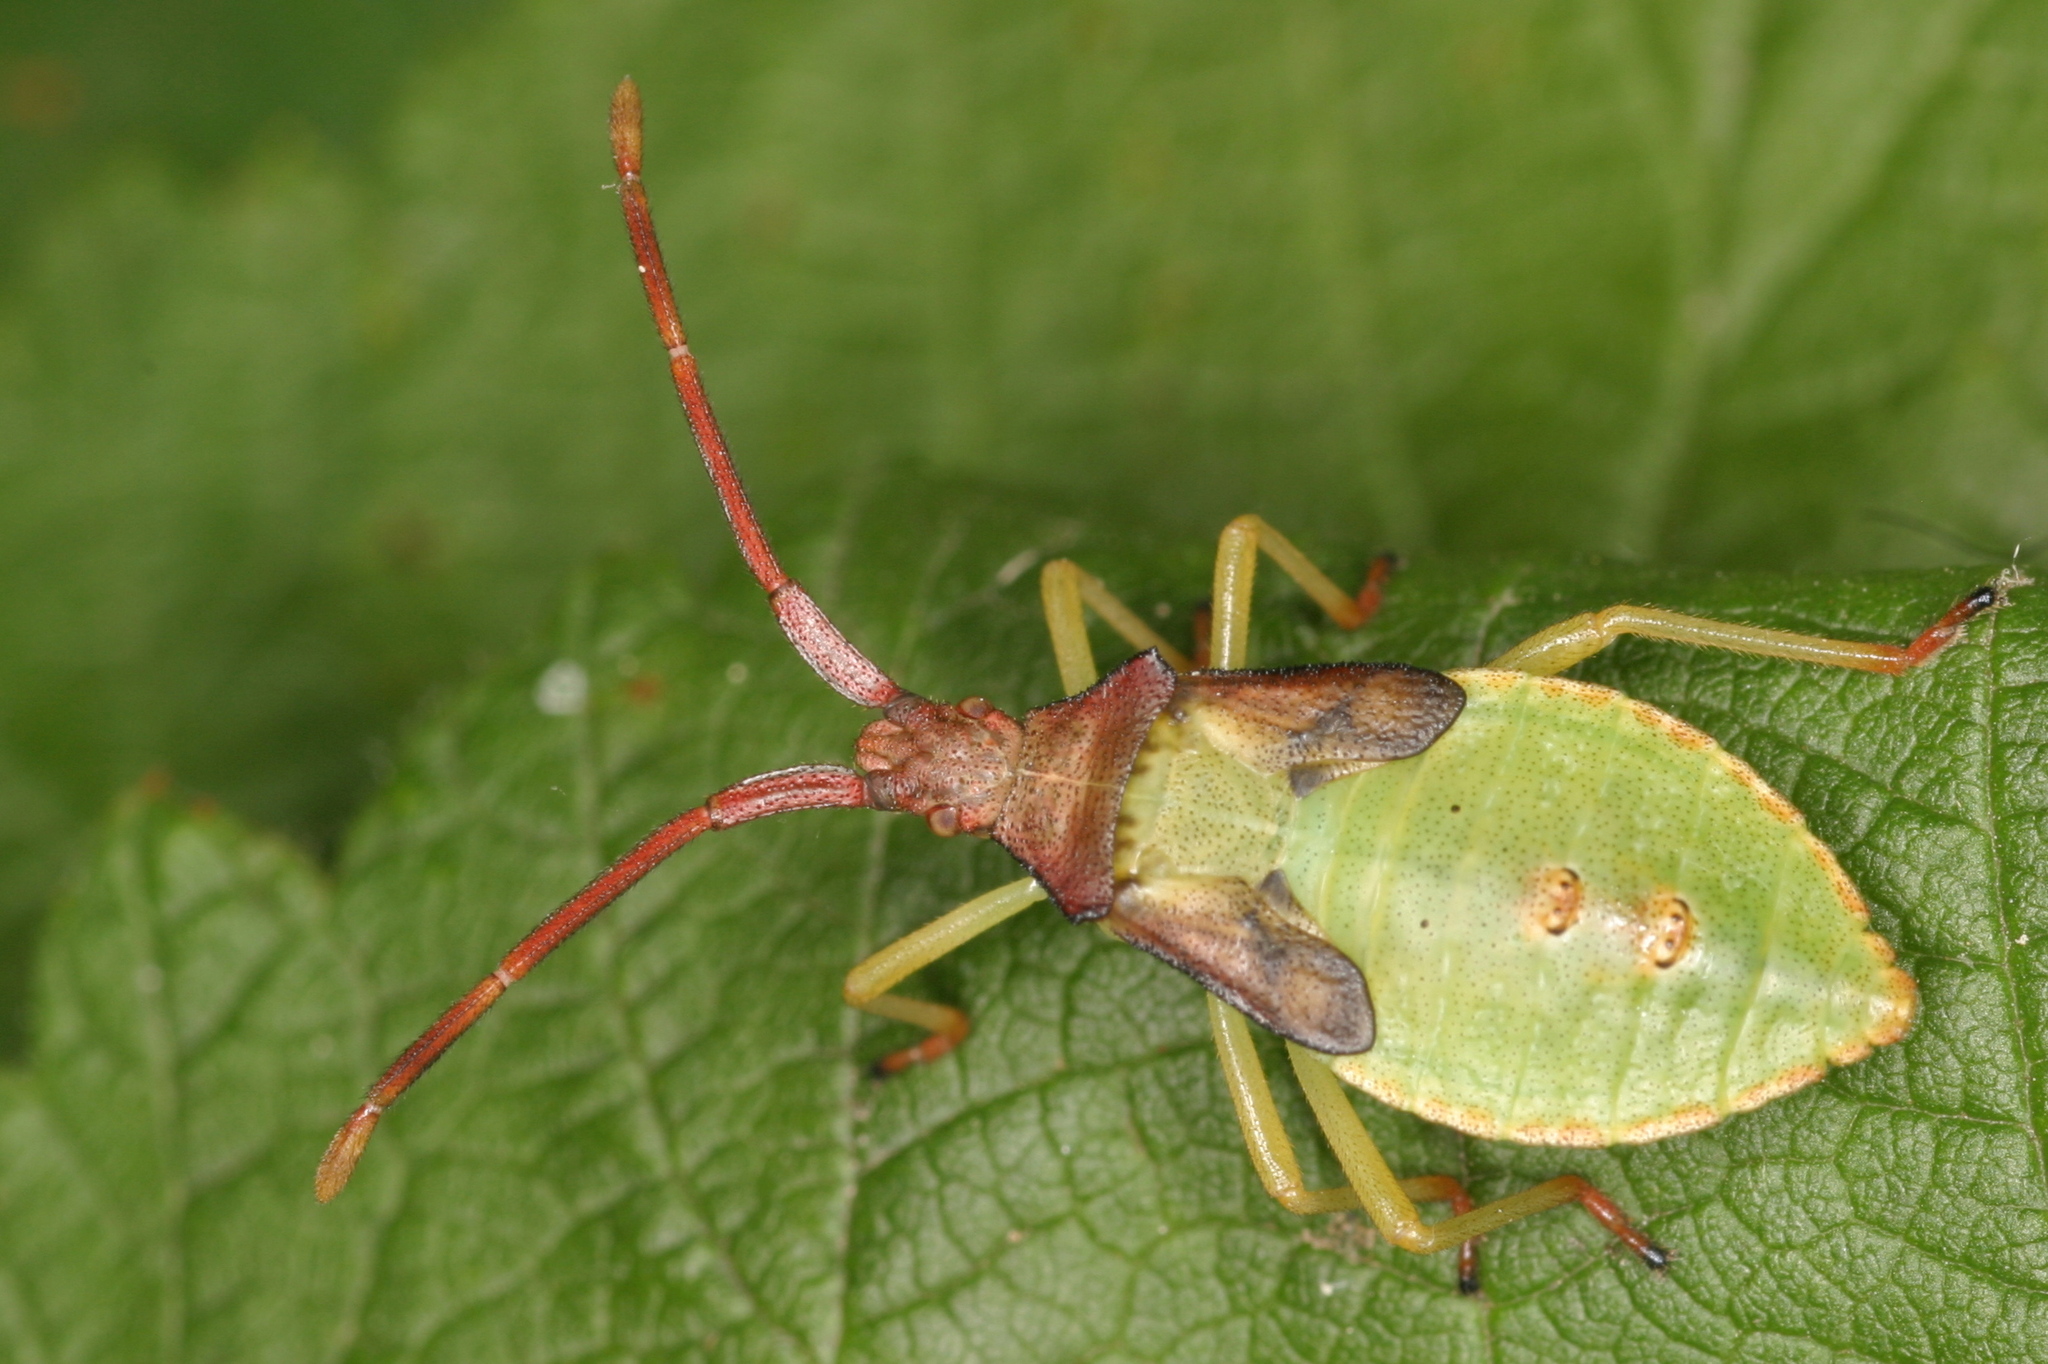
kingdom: Animalia
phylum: Arthropoda
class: Insecta
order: Hemiptera
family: Coreidae
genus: Gonocerus
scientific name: Gonocerus acuteangulatus
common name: Box bug
